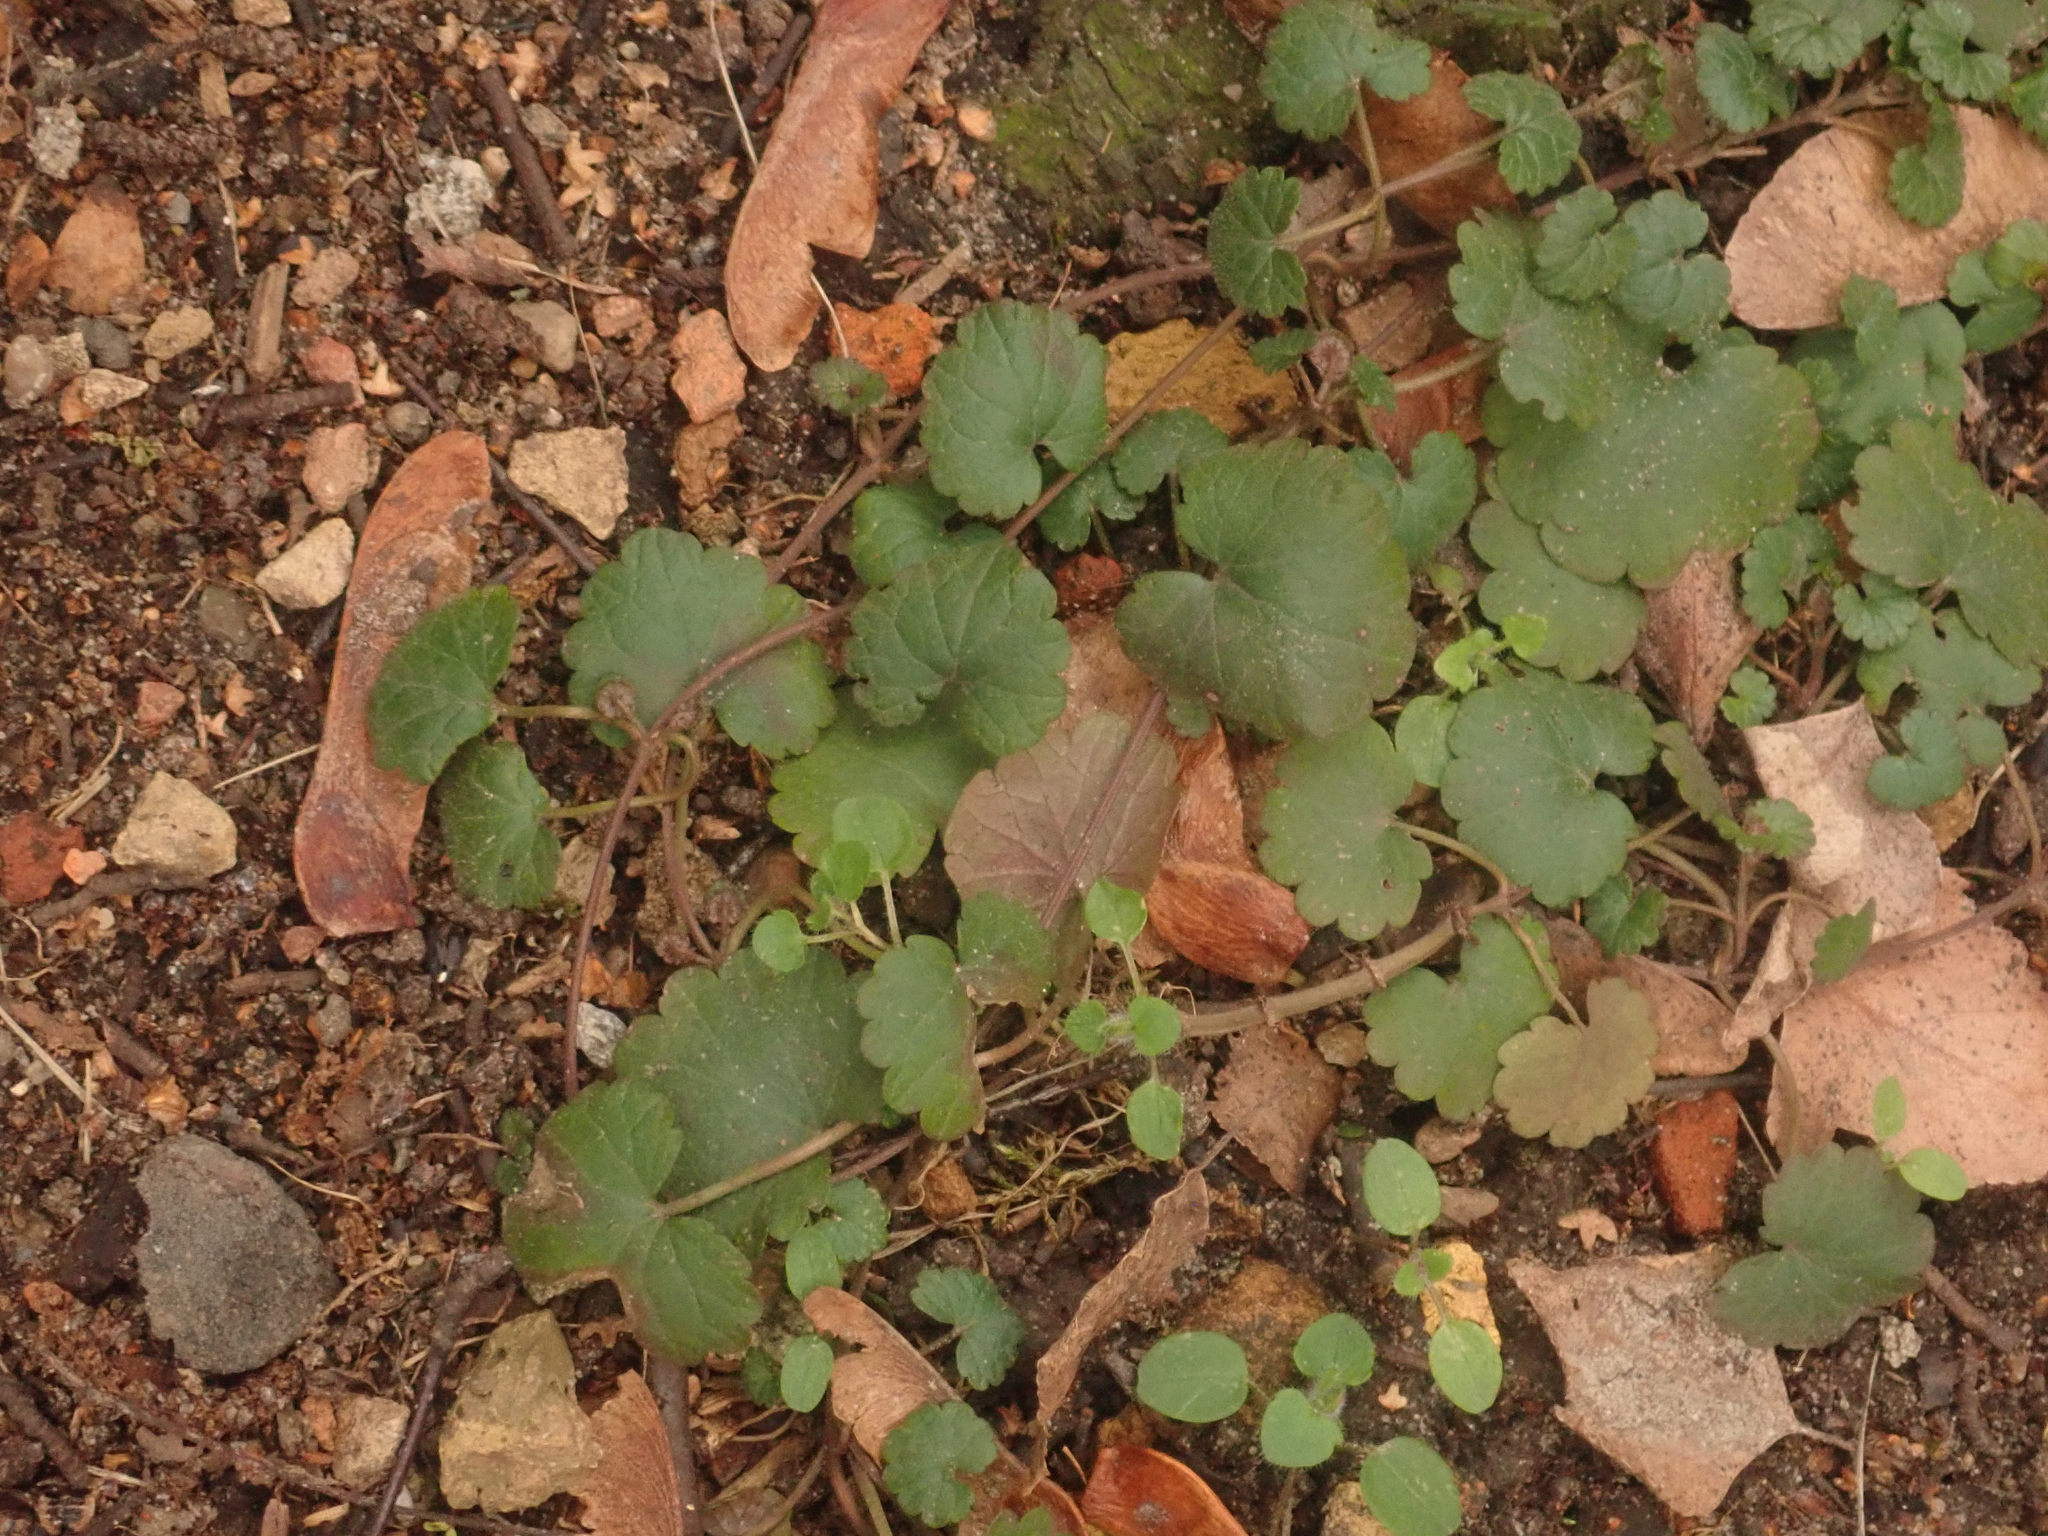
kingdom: Plantae
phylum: Tracheophyta
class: Magnoliopsida
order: Lamiales
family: Lamiaceae
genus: Glechoma
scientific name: Glechoma hederacea
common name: Ground ivy
